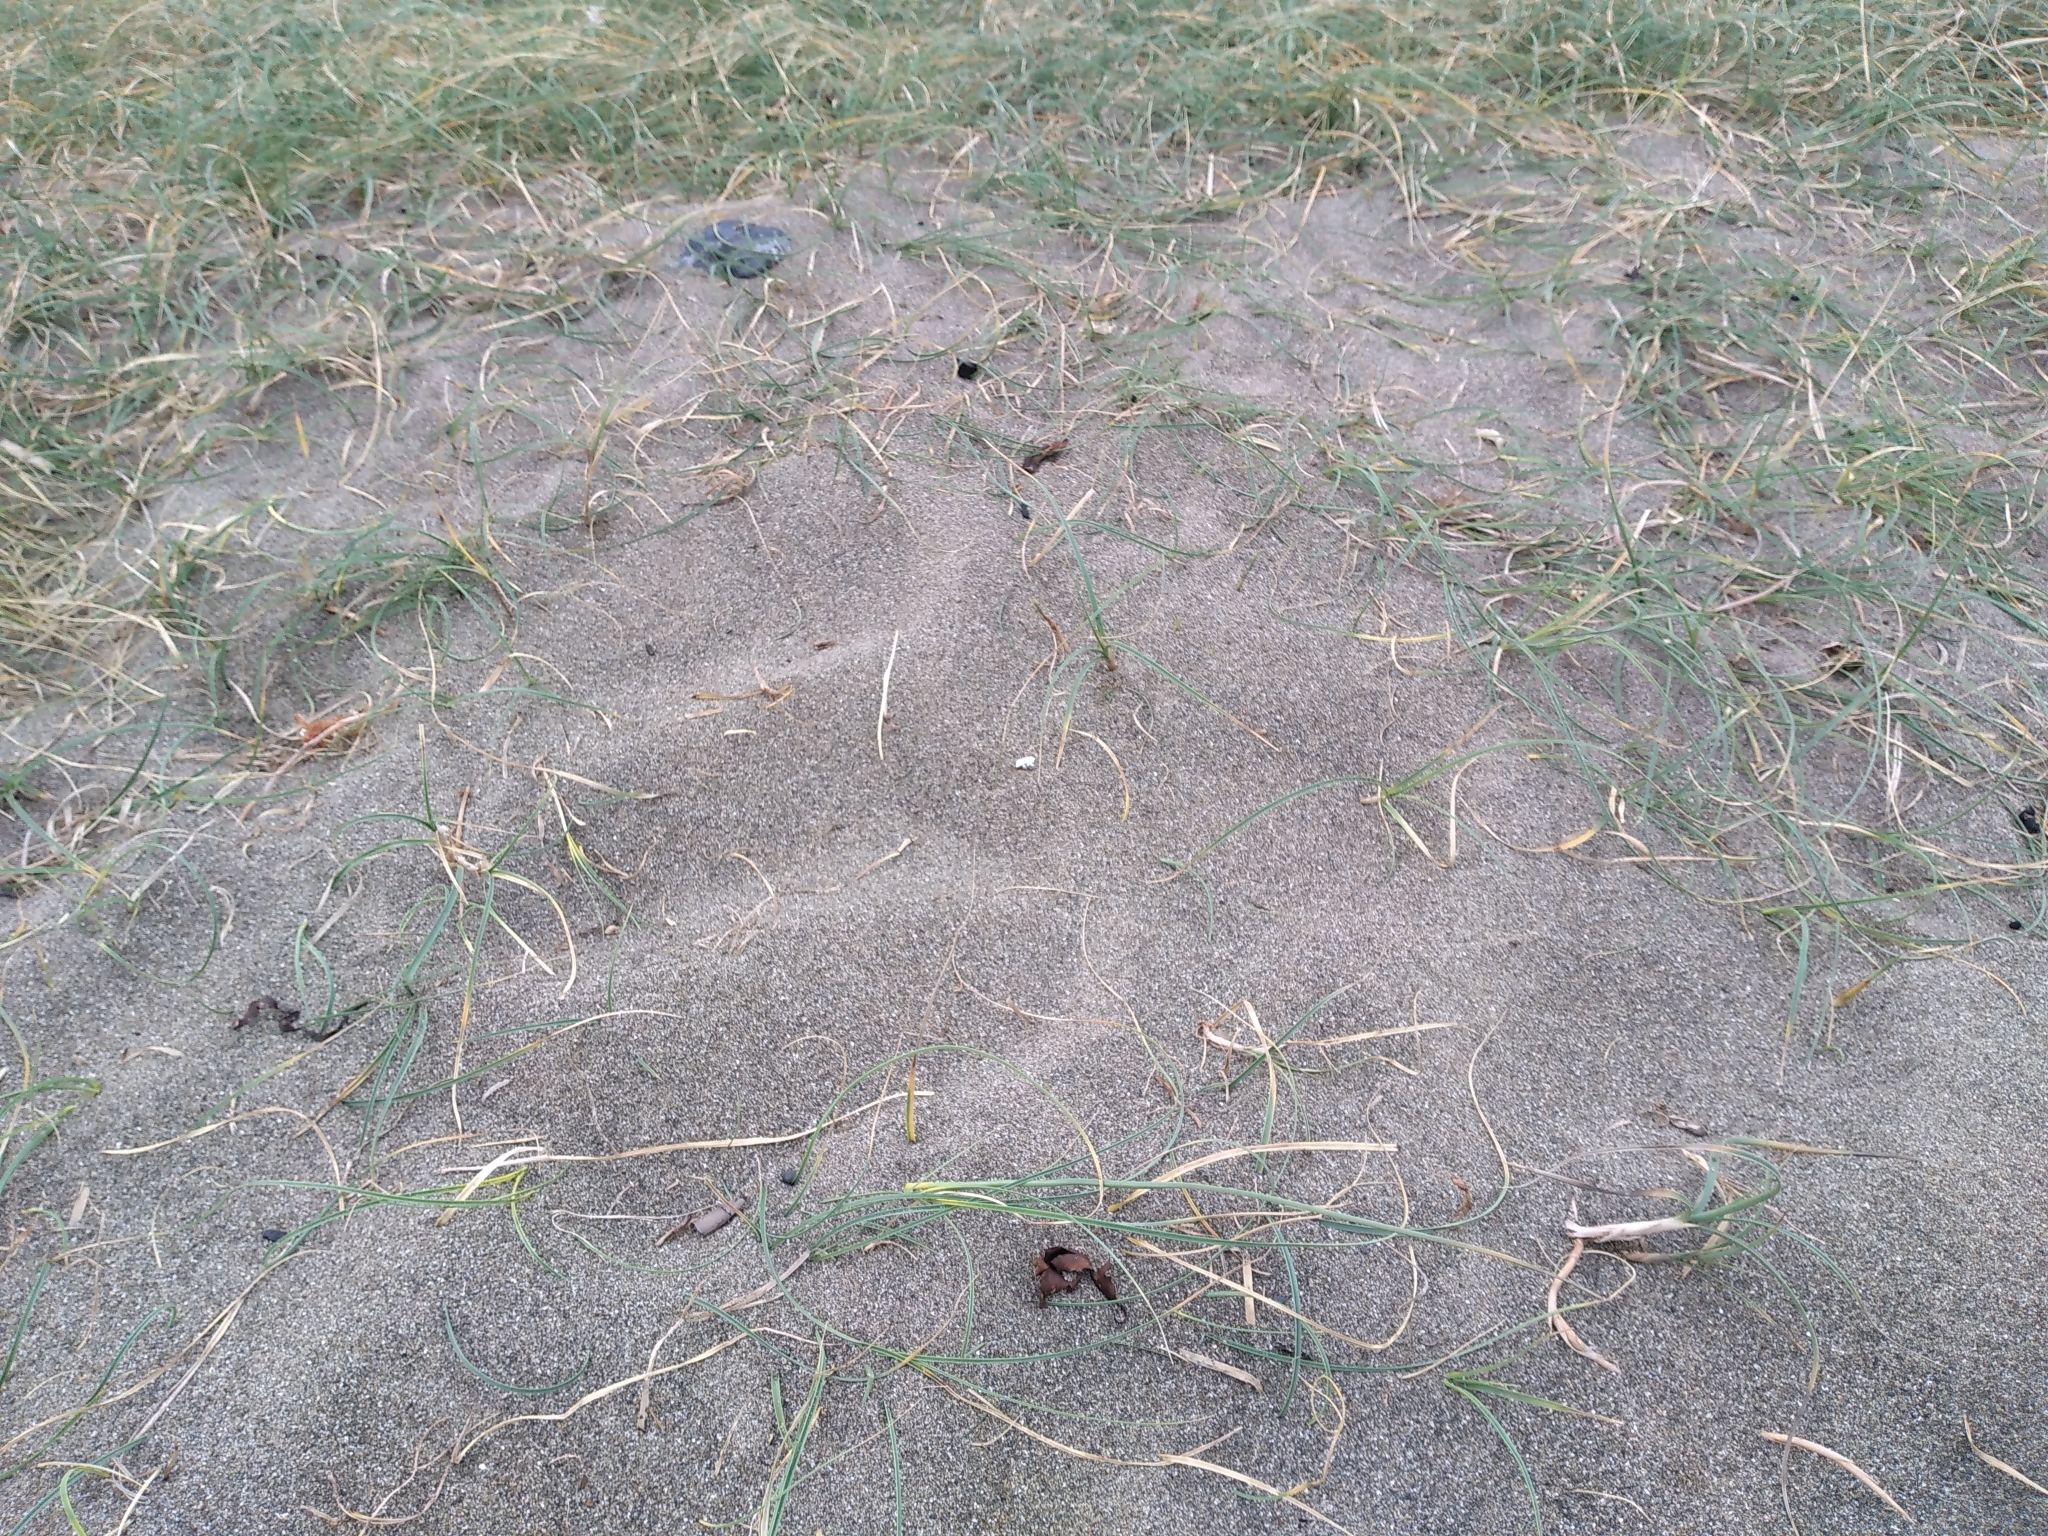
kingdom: Plantae
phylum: Tracheophyta
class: Liliopsida
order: Poales
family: Cyperaceae
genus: Carex
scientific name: Carex pumila
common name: Dwarf sedge
